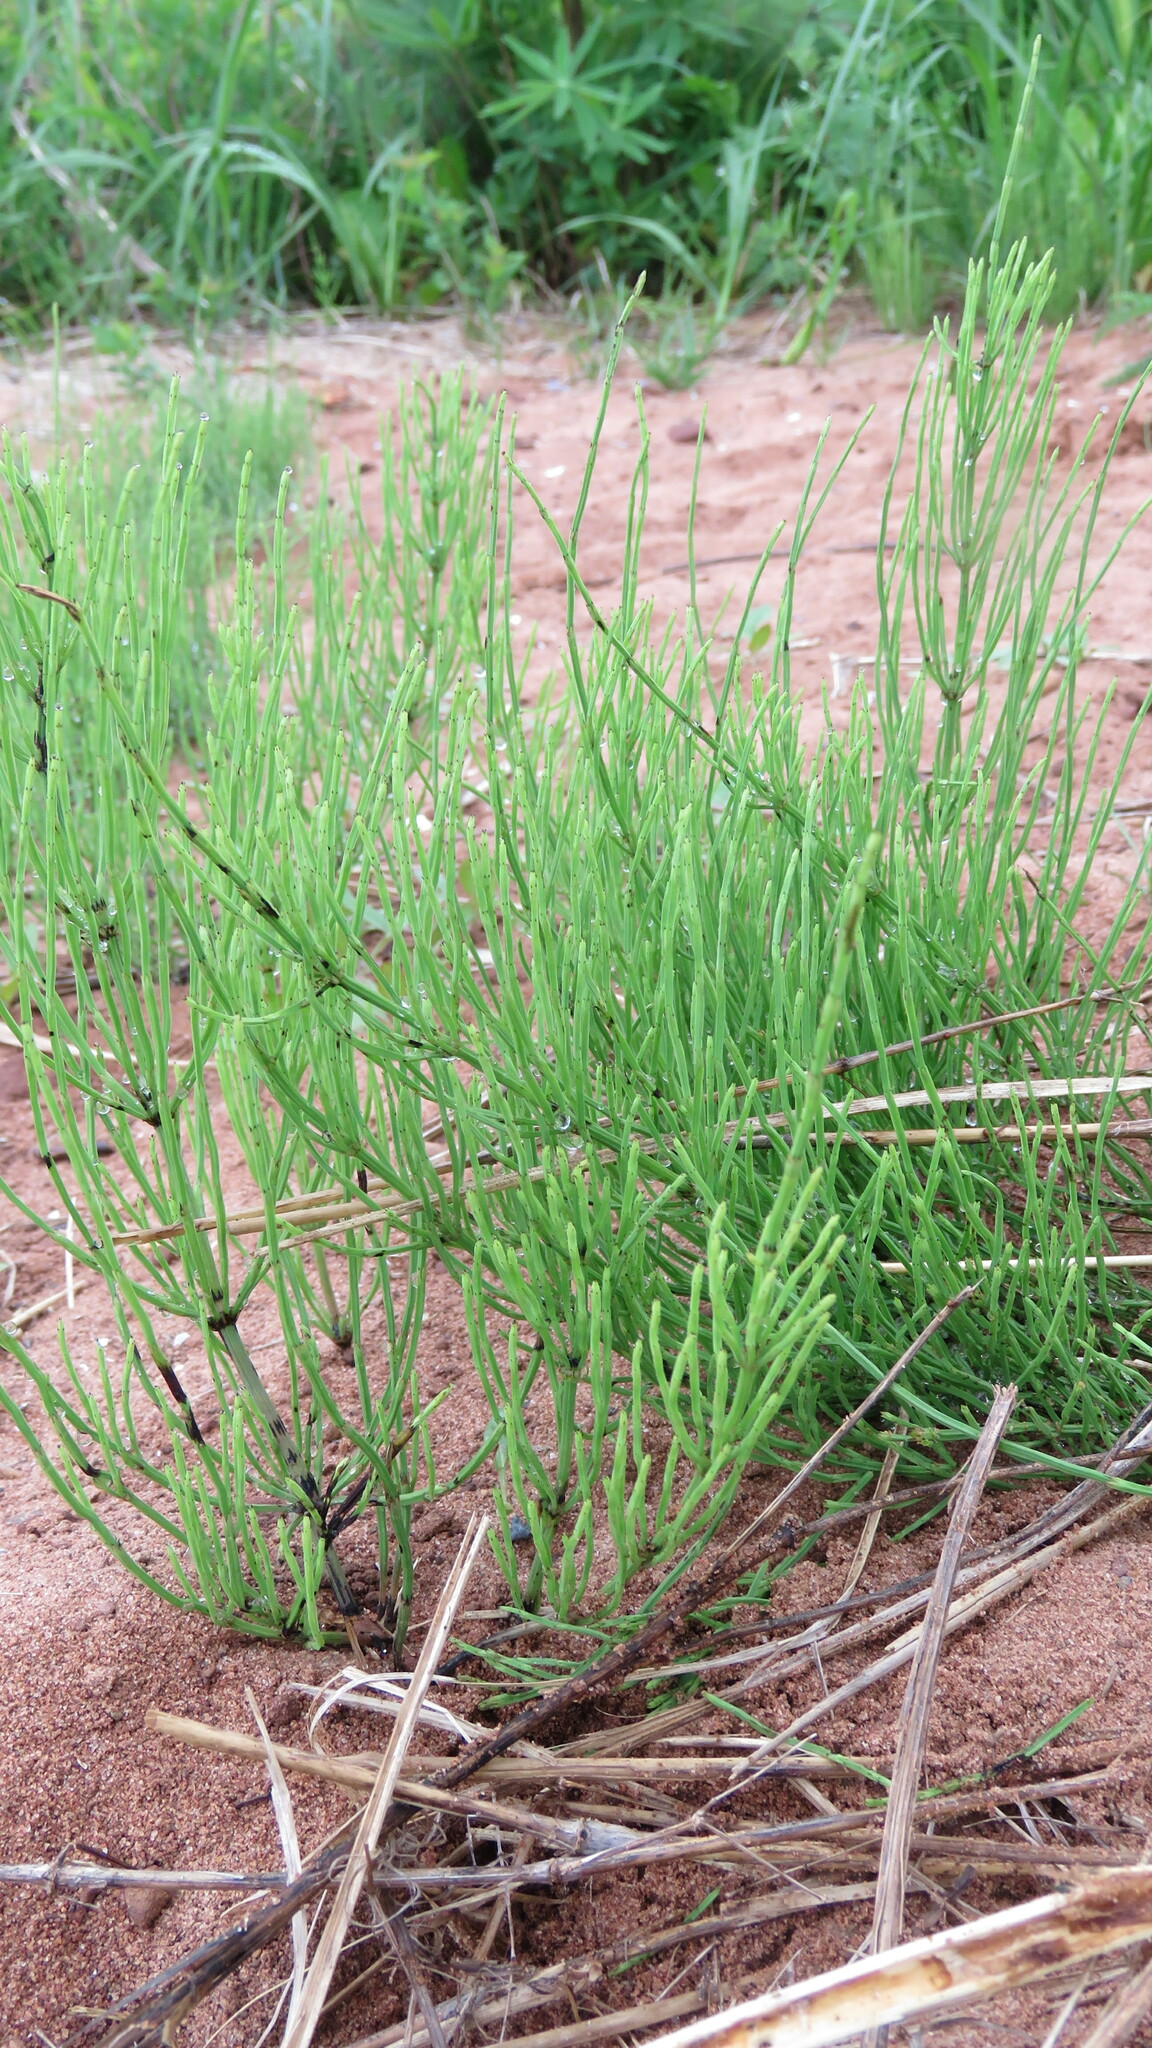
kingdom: Plantae
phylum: Tracheophyta
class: Polypodiopsida
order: Equisetales
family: Equisetaceae
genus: Equisetum
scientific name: Equisetum arvense
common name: Field horsetail
